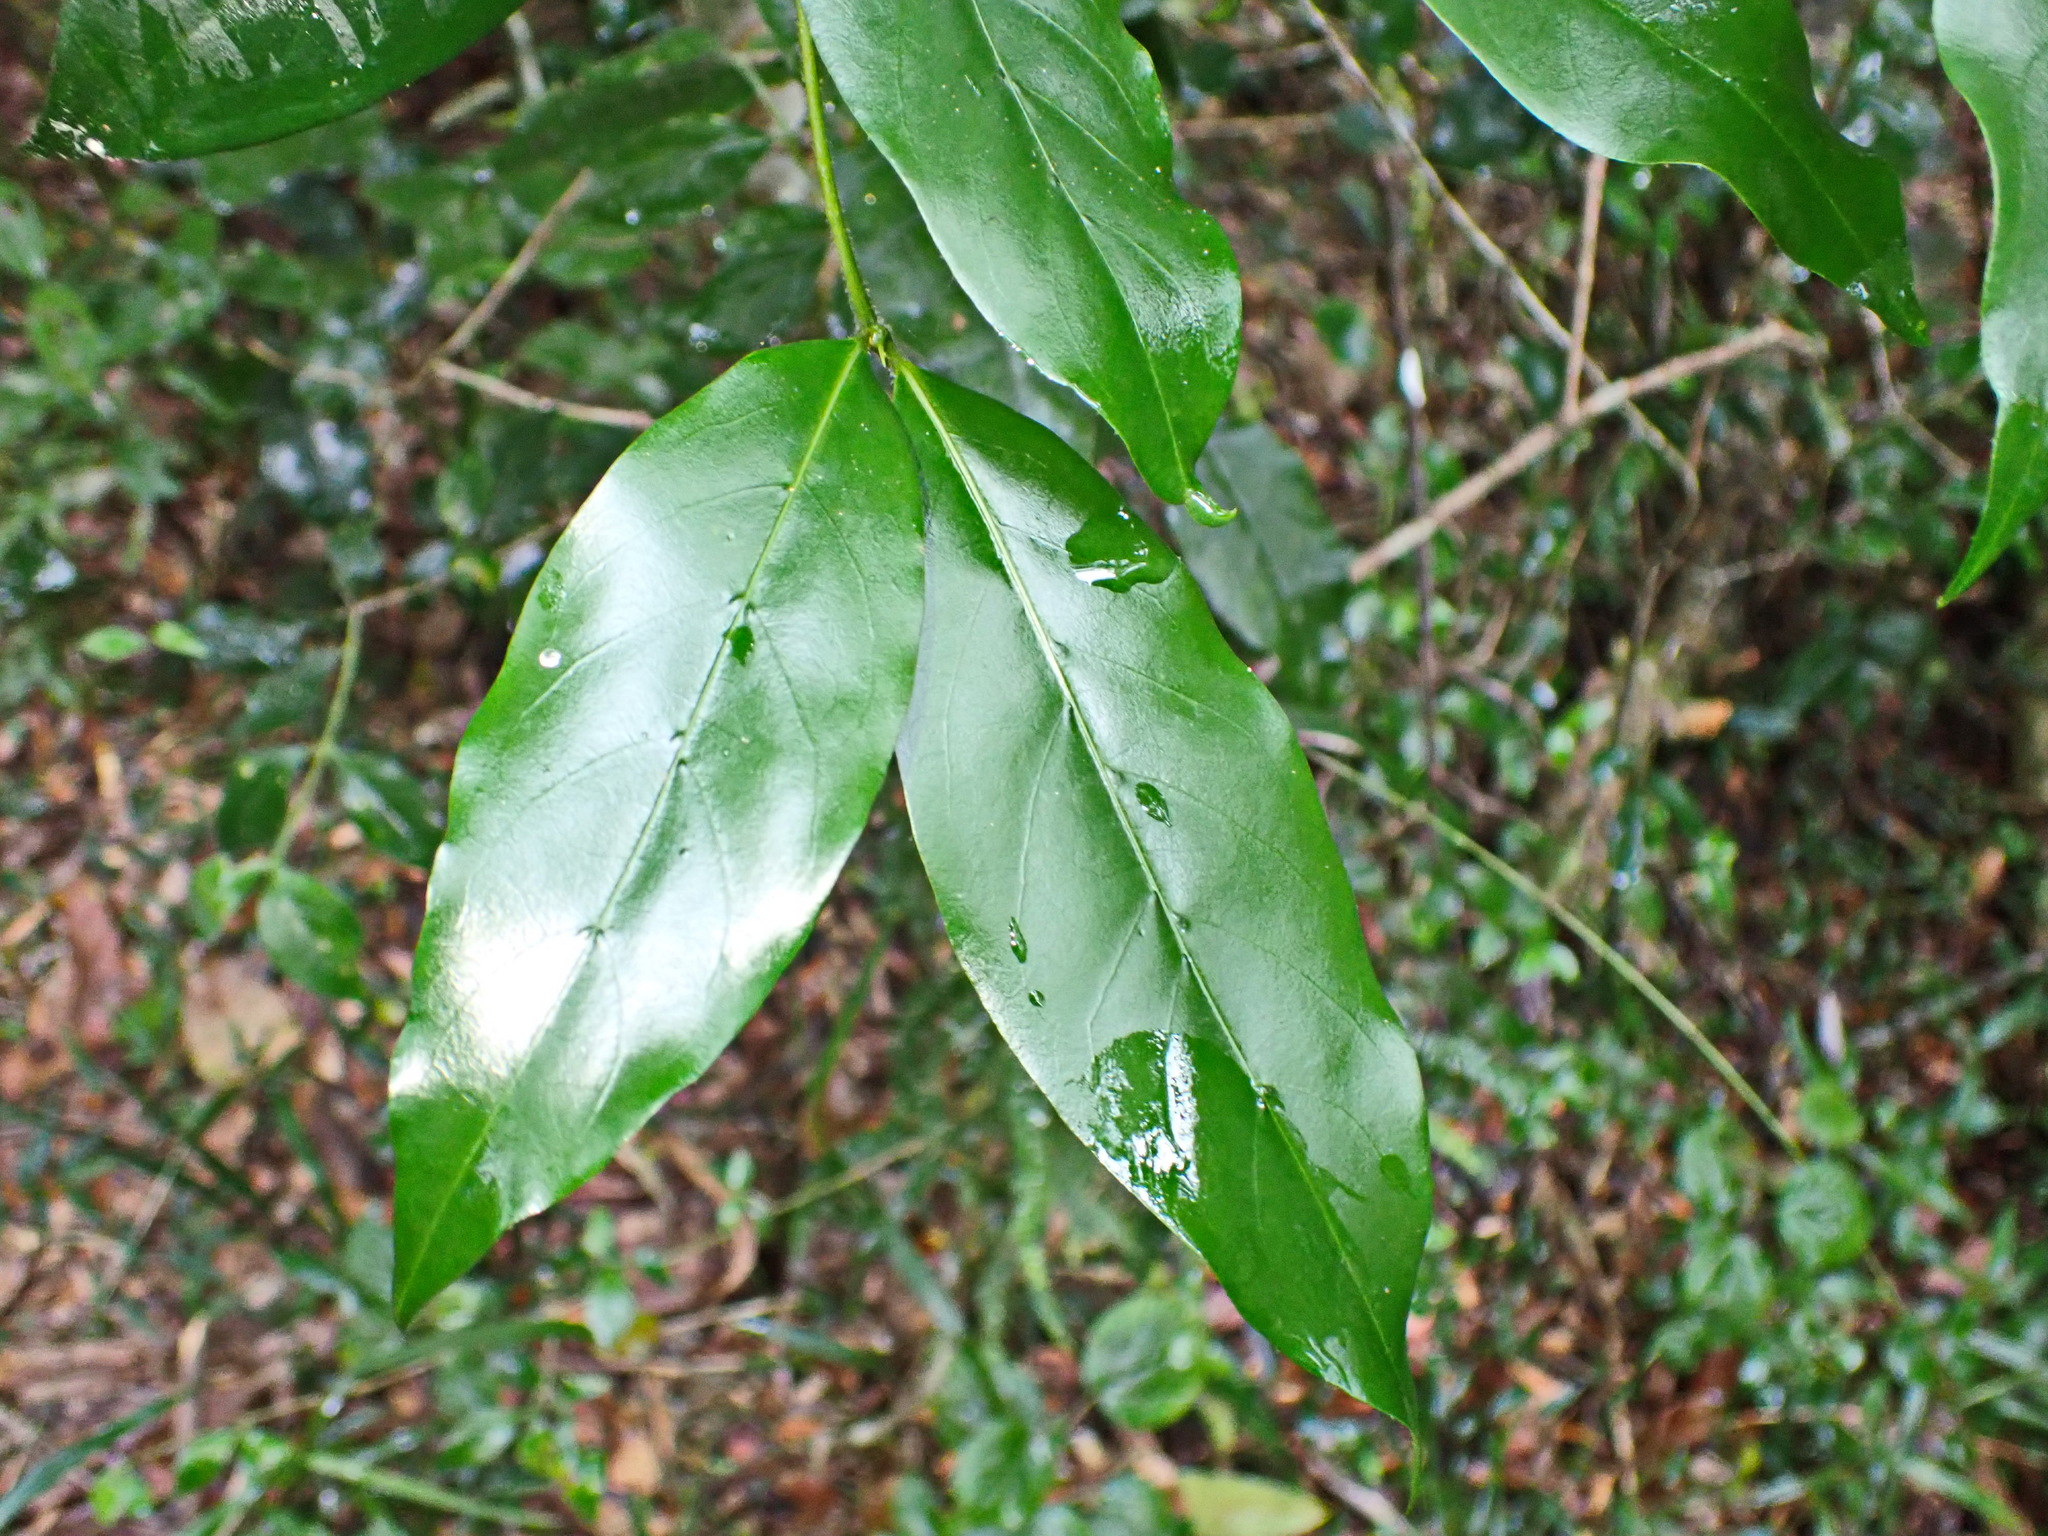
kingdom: Plantae
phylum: Tracheophyta
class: Magnoliopsida
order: Gentianales
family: Rubiaceae
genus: Rothmannia
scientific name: Rothmannia capensis
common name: Cape gardenia
